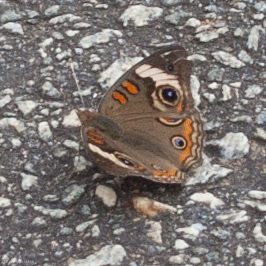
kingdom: Animalia
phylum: Arthropoda
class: Insecta
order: Lepidoptera
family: Nymphalidae
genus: Junonia
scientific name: Junonia coenia
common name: Common buckeye
